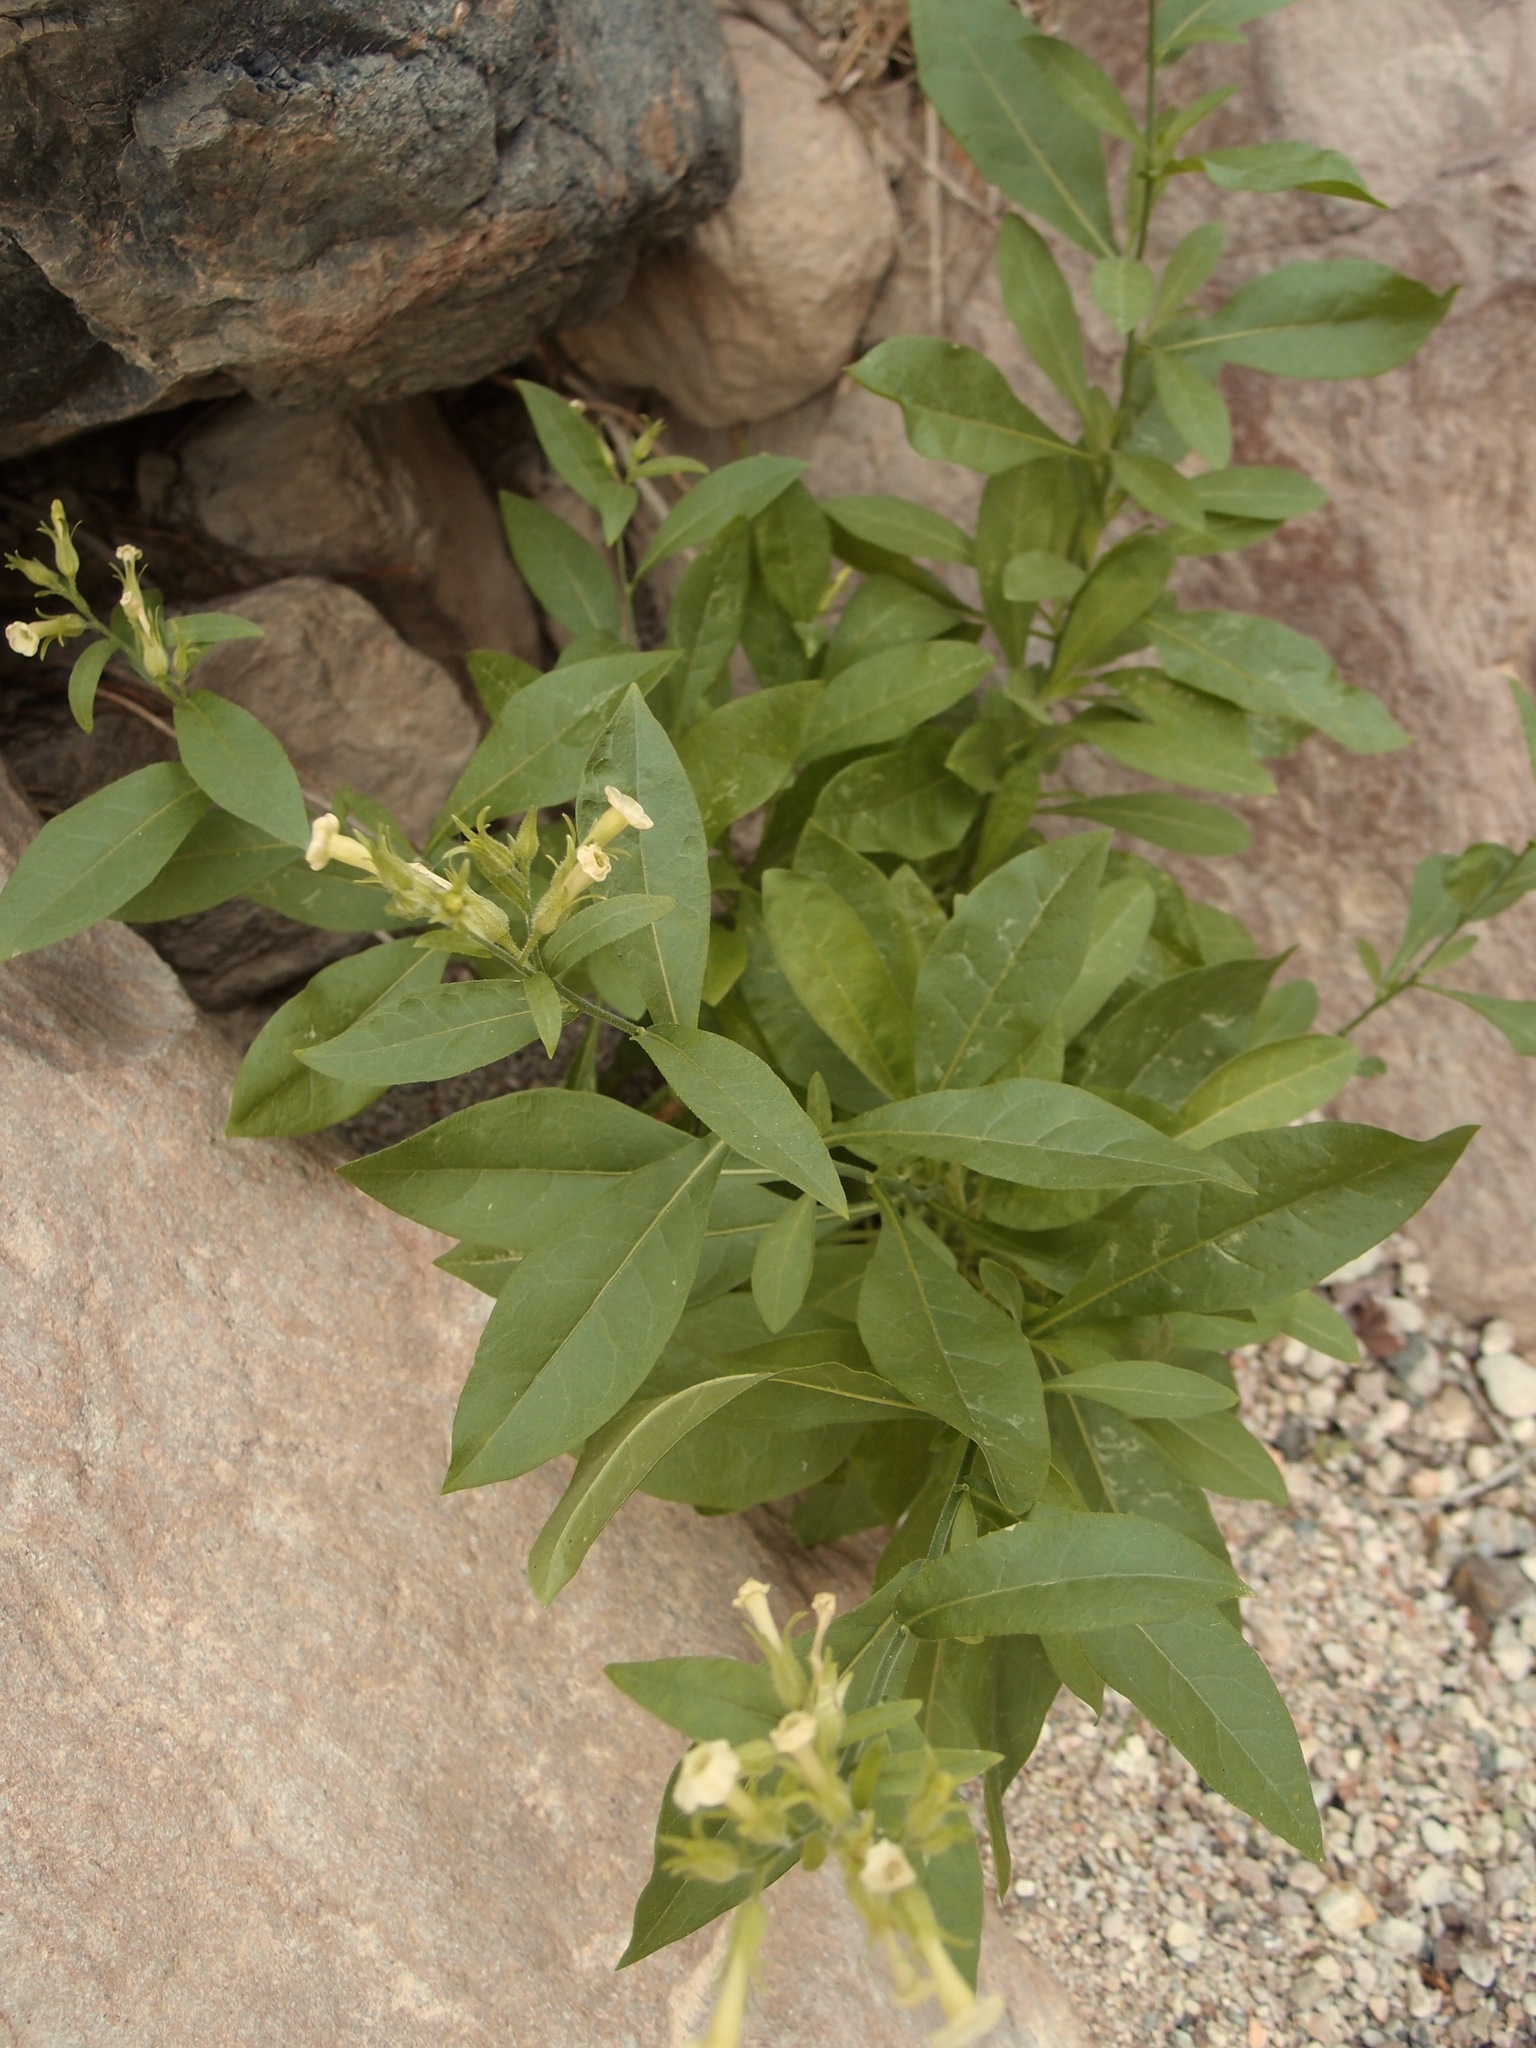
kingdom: Plantae
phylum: Tracheophyta
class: Magnoliopsida
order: Solanales
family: Solanaceae
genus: Nicotiana
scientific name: Nicotiana obtusifolia
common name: Desert tobacco
